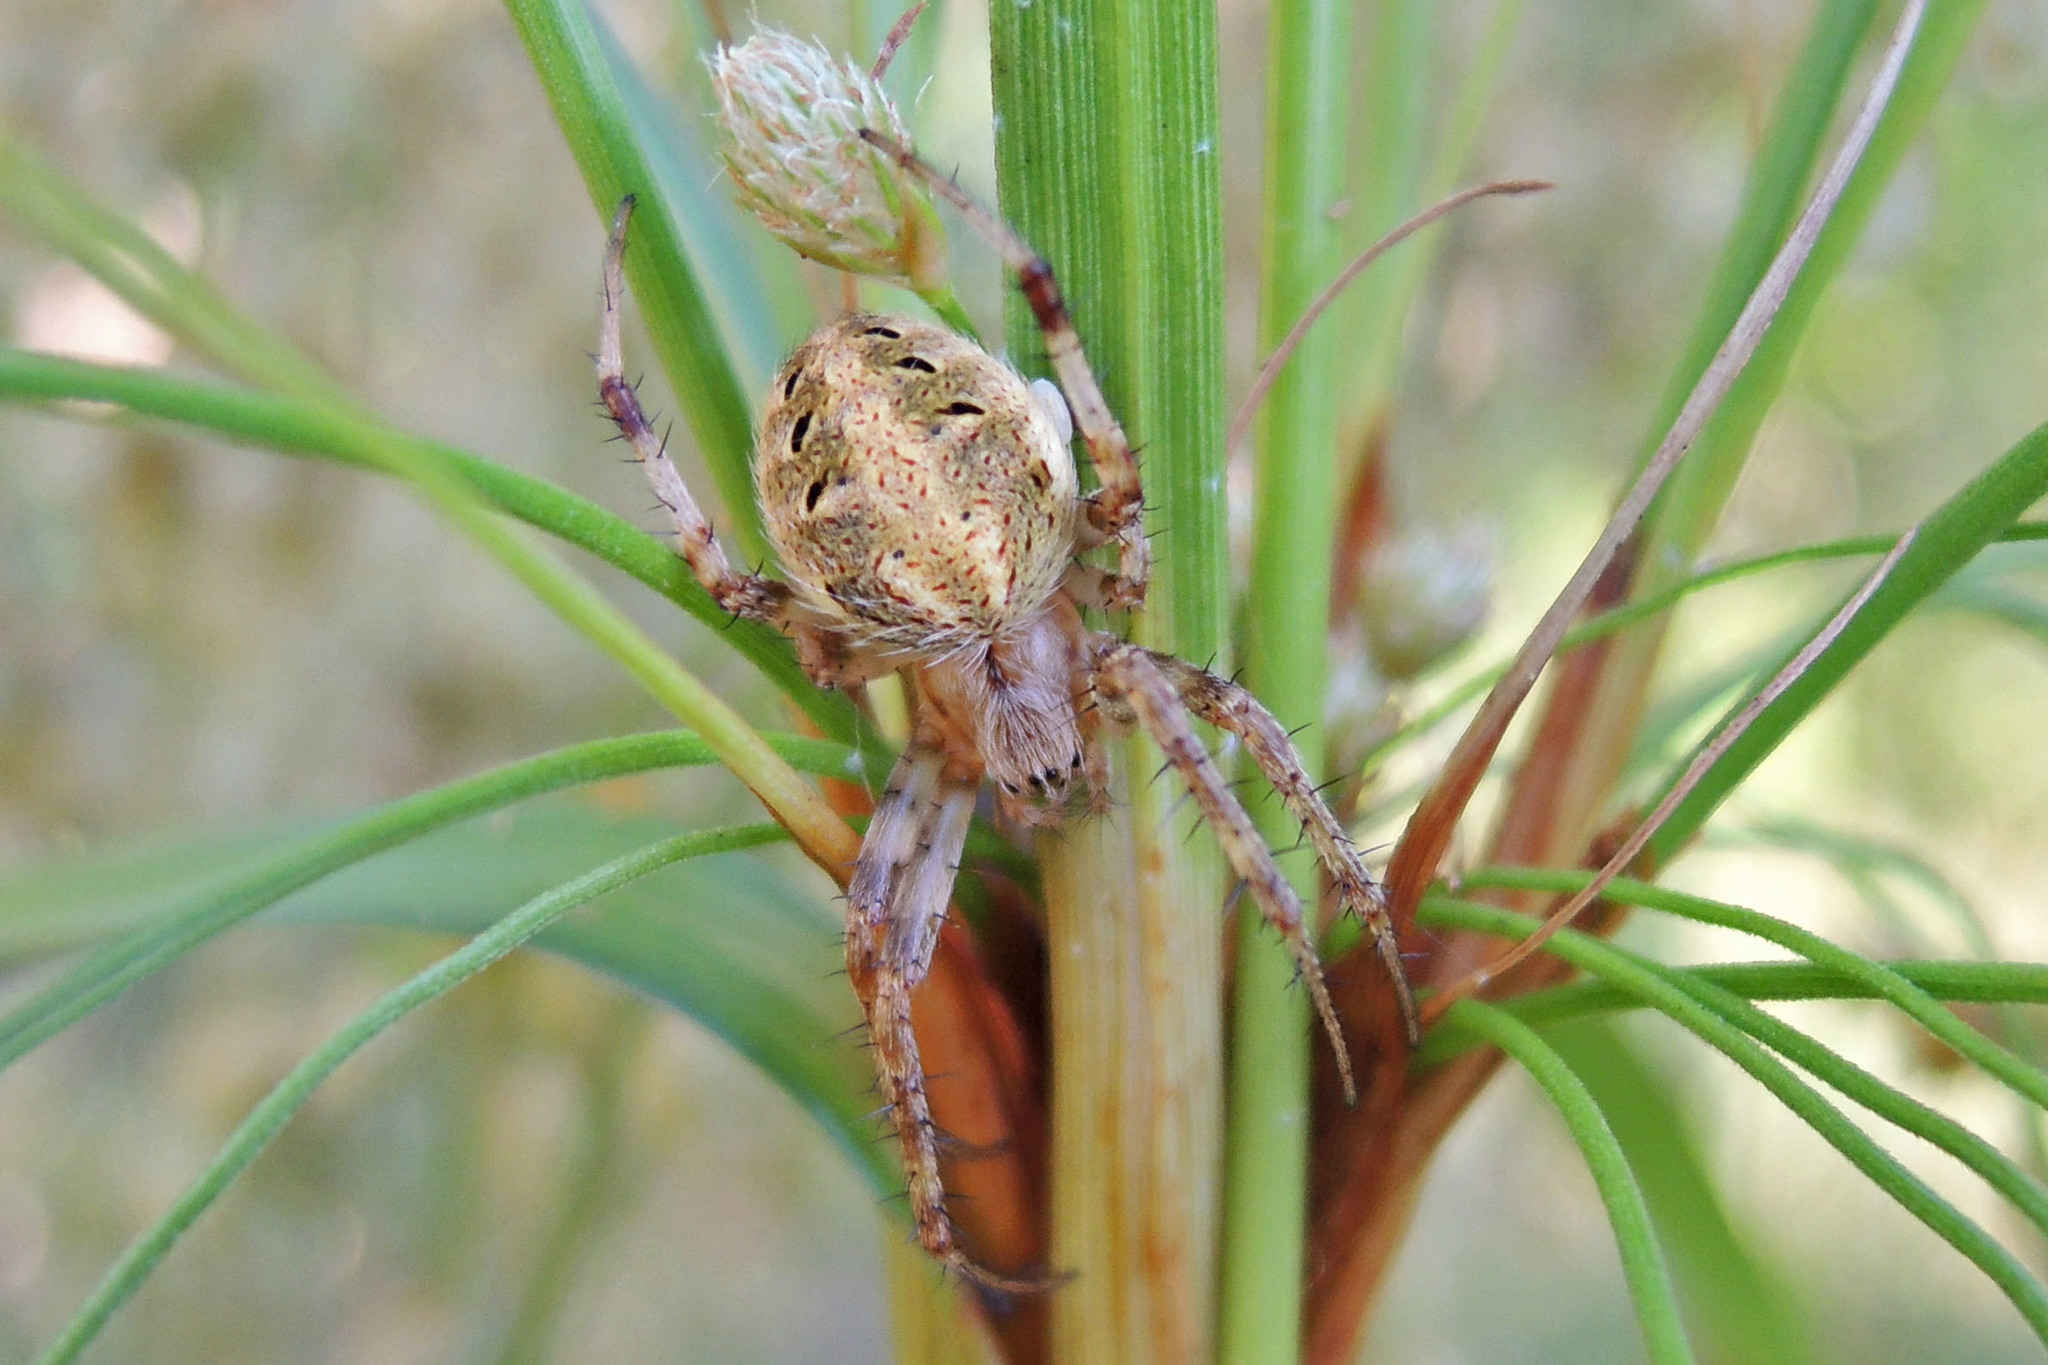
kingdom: Animalia
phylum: Arthropoda
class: Arachnida
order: Araneae
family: Araneidae
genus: Neoscona
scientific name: Neoscona arabesca
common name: Orb weavers
